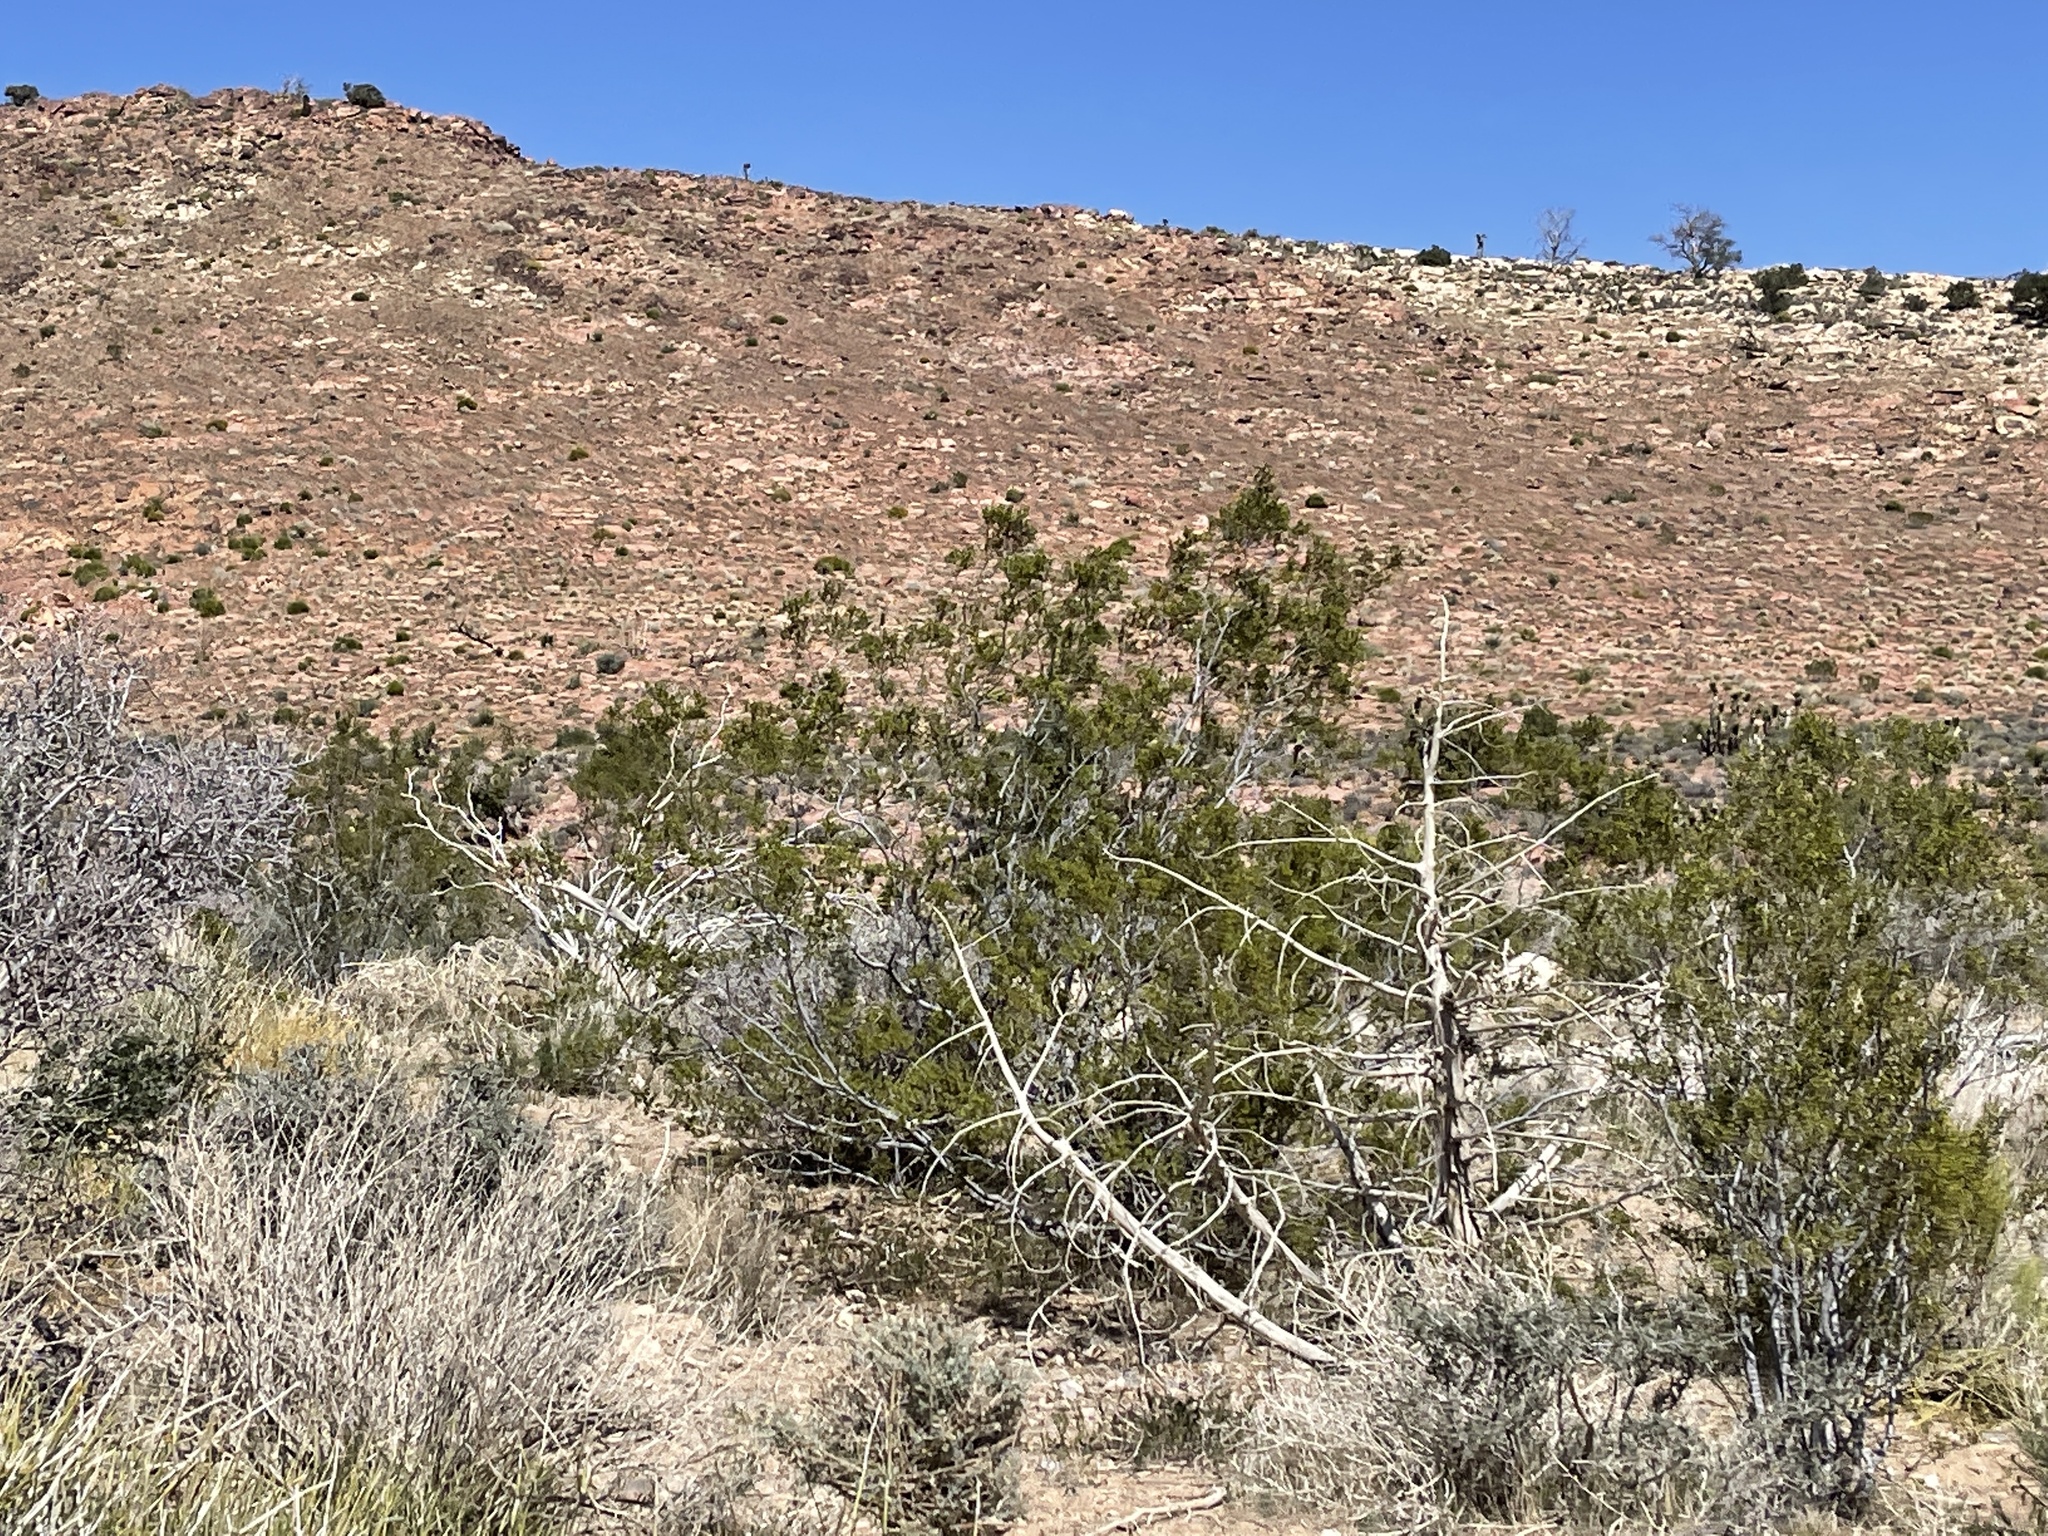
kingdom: Plantae
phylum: Tracheophyta
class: Magnoliopsida
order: Zygophyllales
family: Zygophyllaceae
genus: Larrea
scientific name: Larrea tridentata
